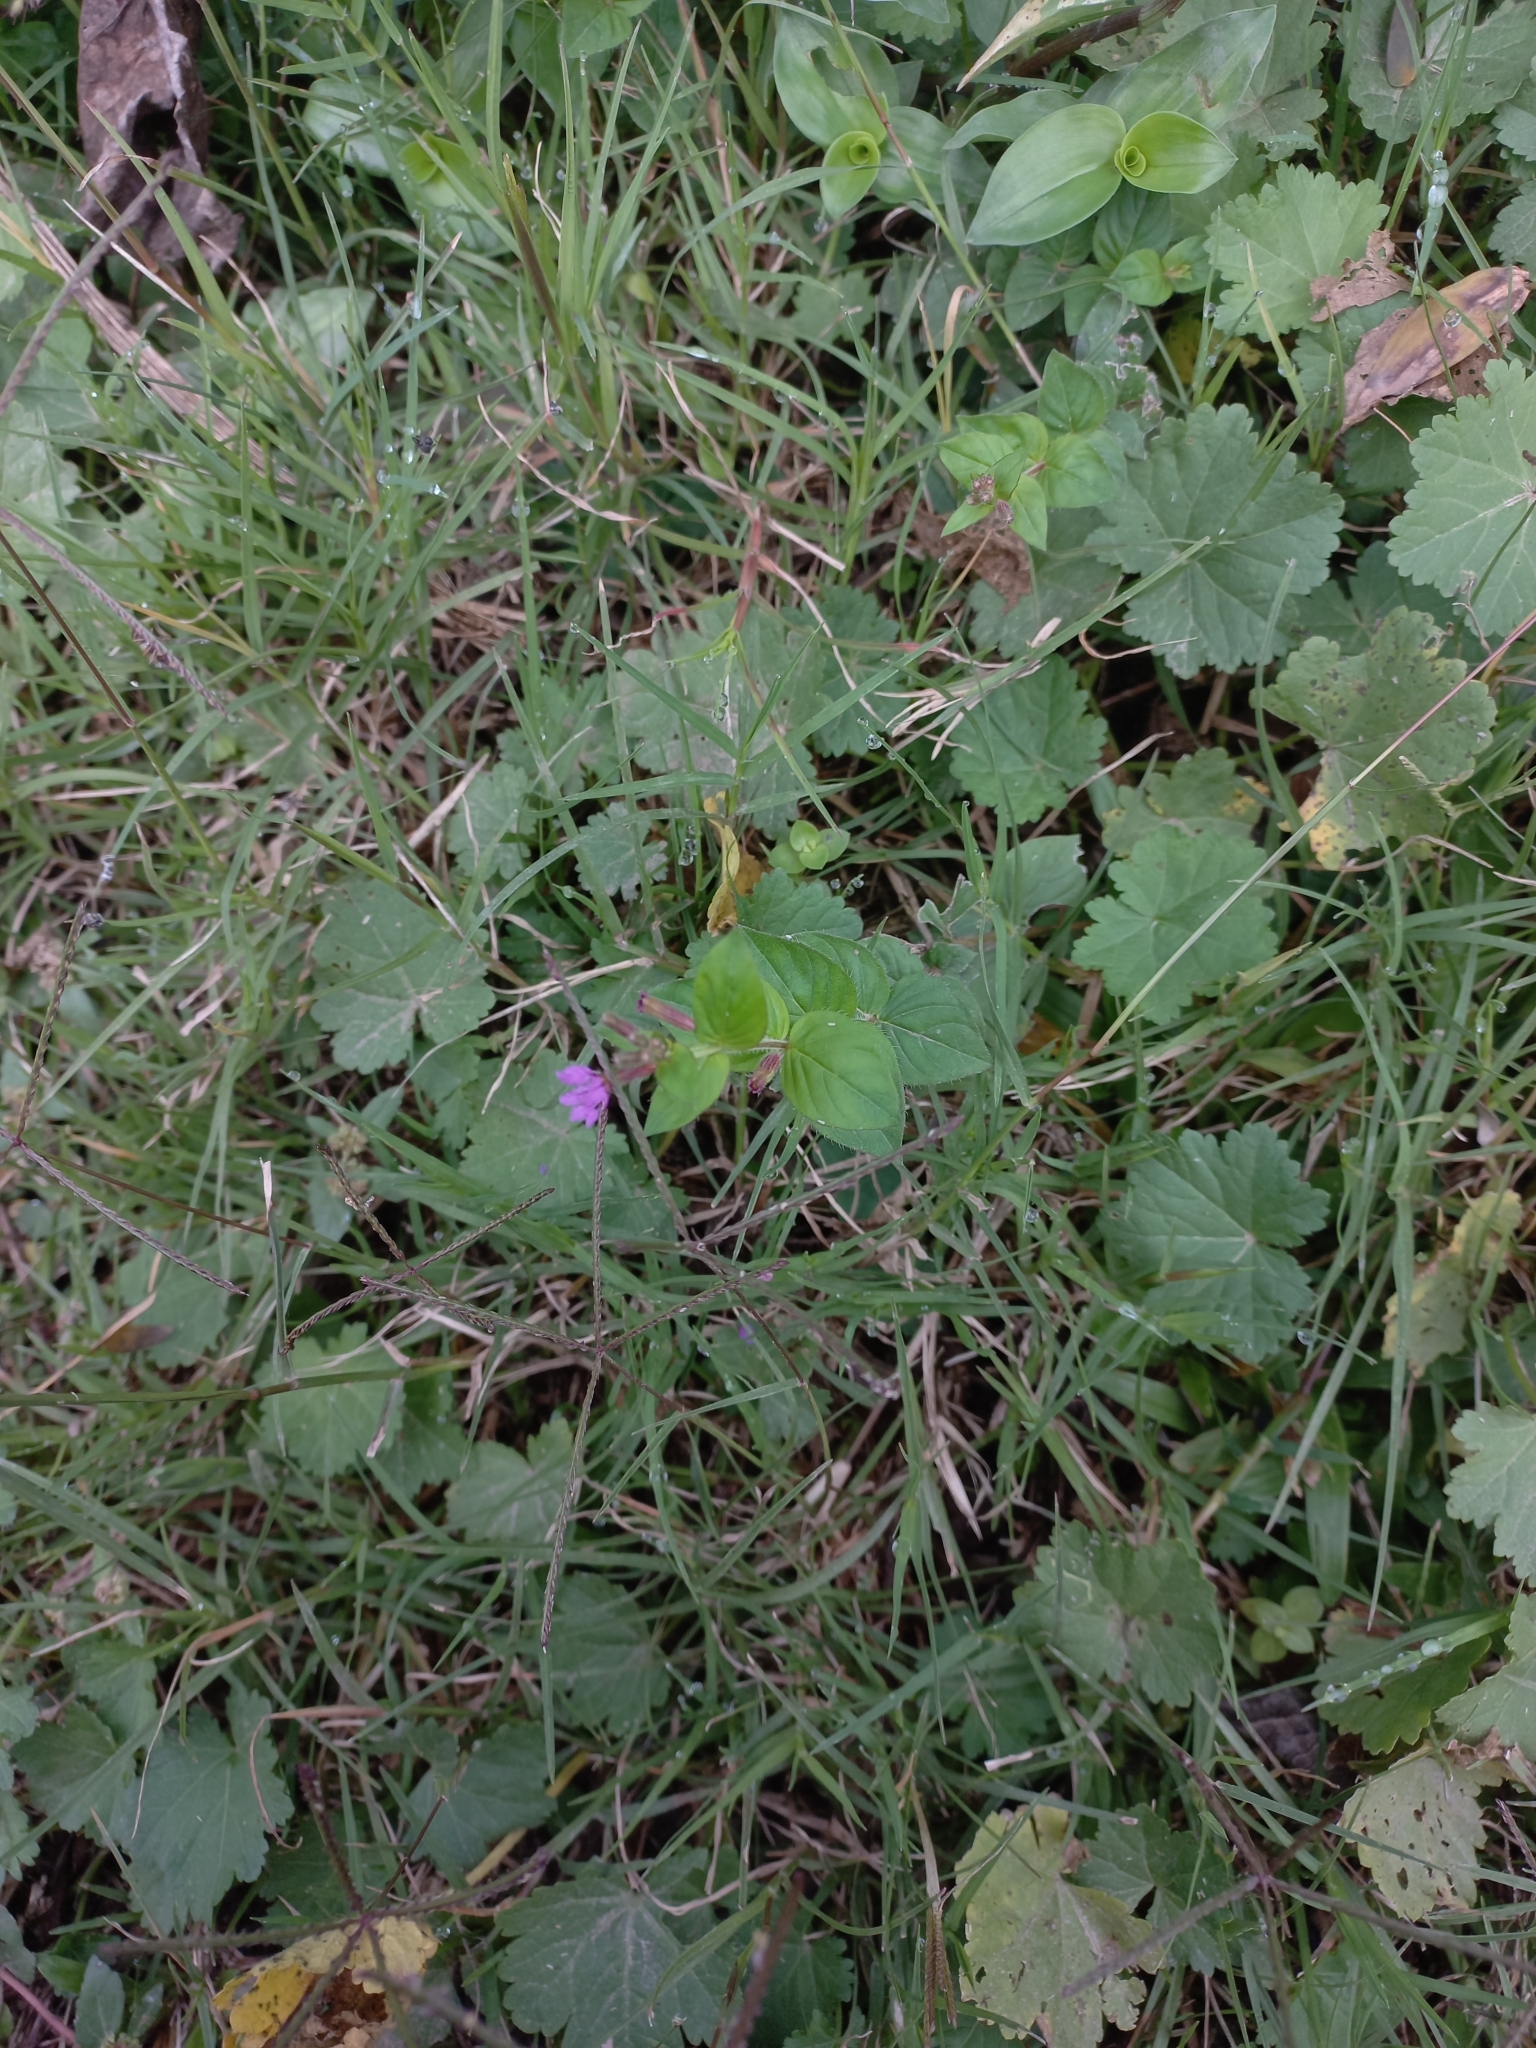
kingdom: Plantae
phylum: Tracheophyta
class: Magnoliopsida
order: Myrtales
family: Lythraceae
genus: Cuphea
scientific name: Cuphea calophylla
